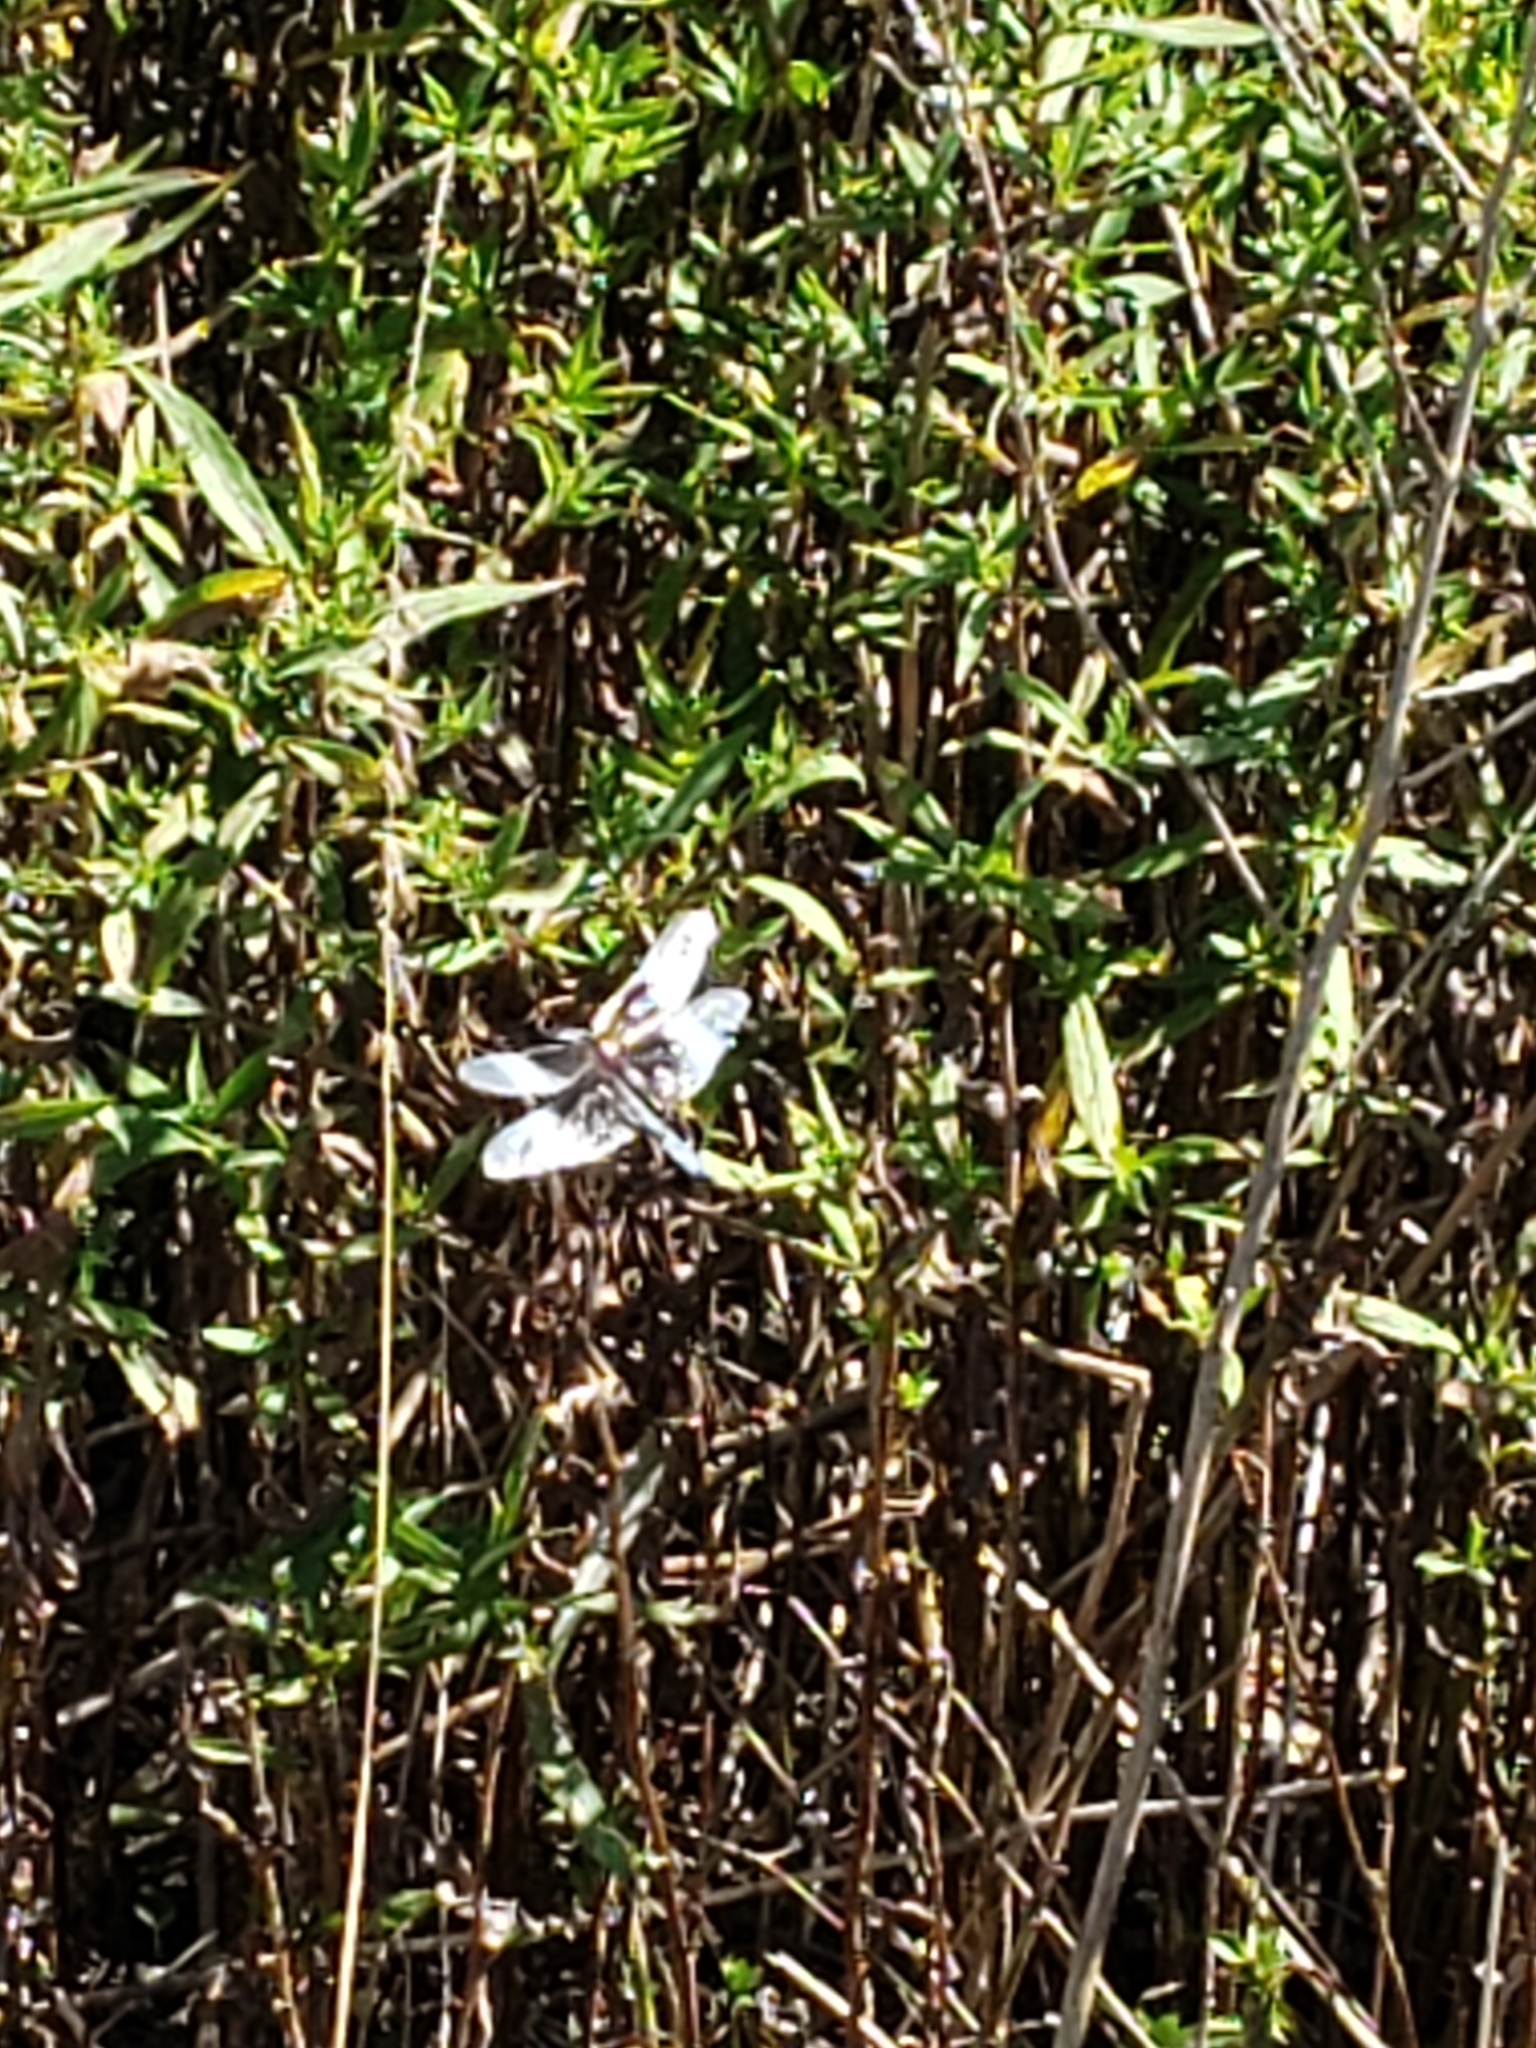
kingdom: Animalia
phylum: Arthropoda
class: Insecta
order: Odonata
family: Libellulidae
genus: Libellula
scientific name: Libellula luctuosa
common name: Widow skimmer
